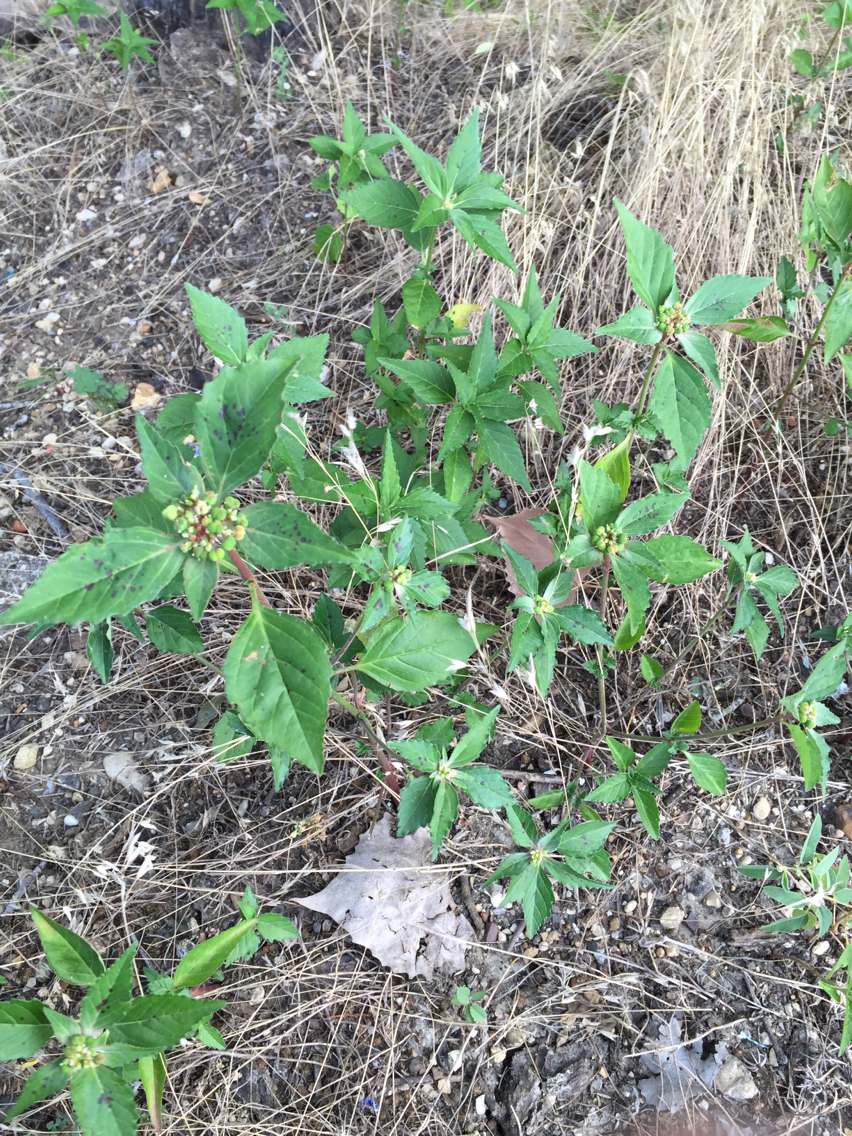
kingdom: Plantae
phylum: Tracheophyta
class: Magnoliopsida
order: Malpighiales
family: Euphorbiaceae
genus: Euphorbia
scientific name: Euphorbia dentata
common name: Dentate spurge
